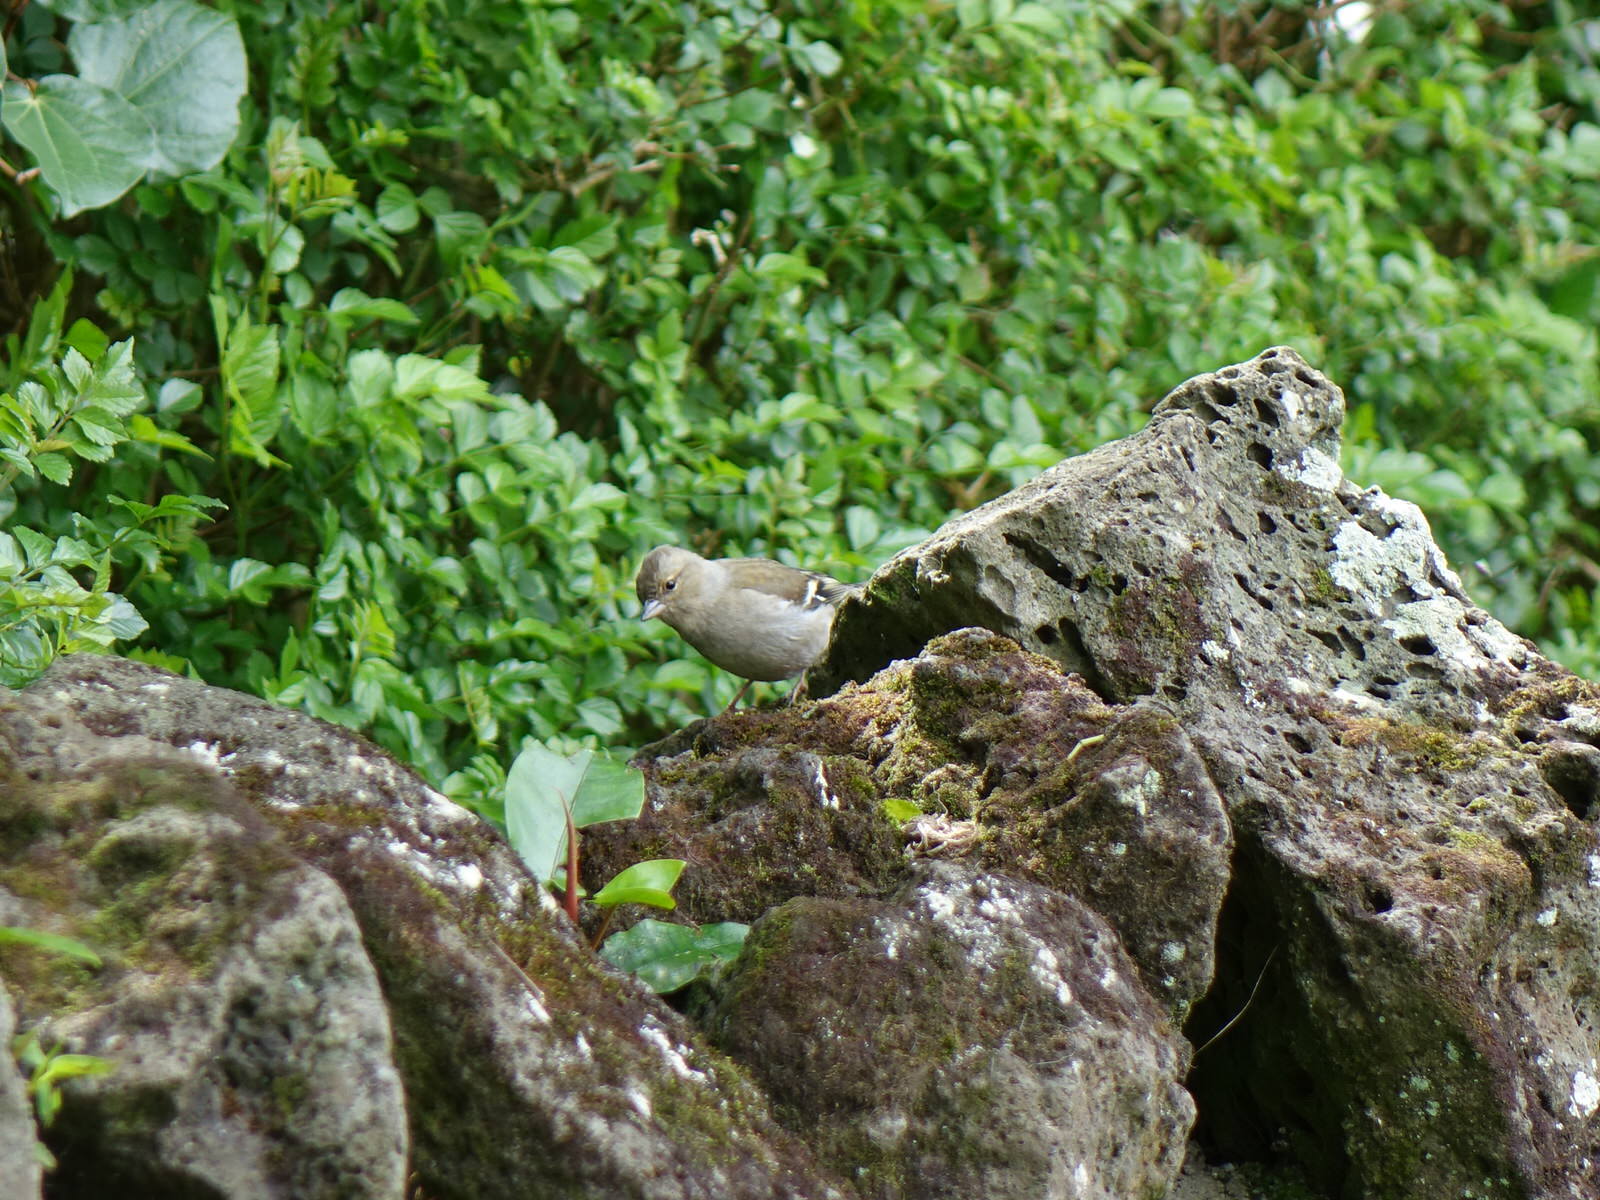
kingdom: Animalia
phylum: Chordata
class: Aves
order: Passeriformes
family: Fringillidae
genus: Fringilla
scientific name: Fringilla coelebs
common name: Common chaffinch
